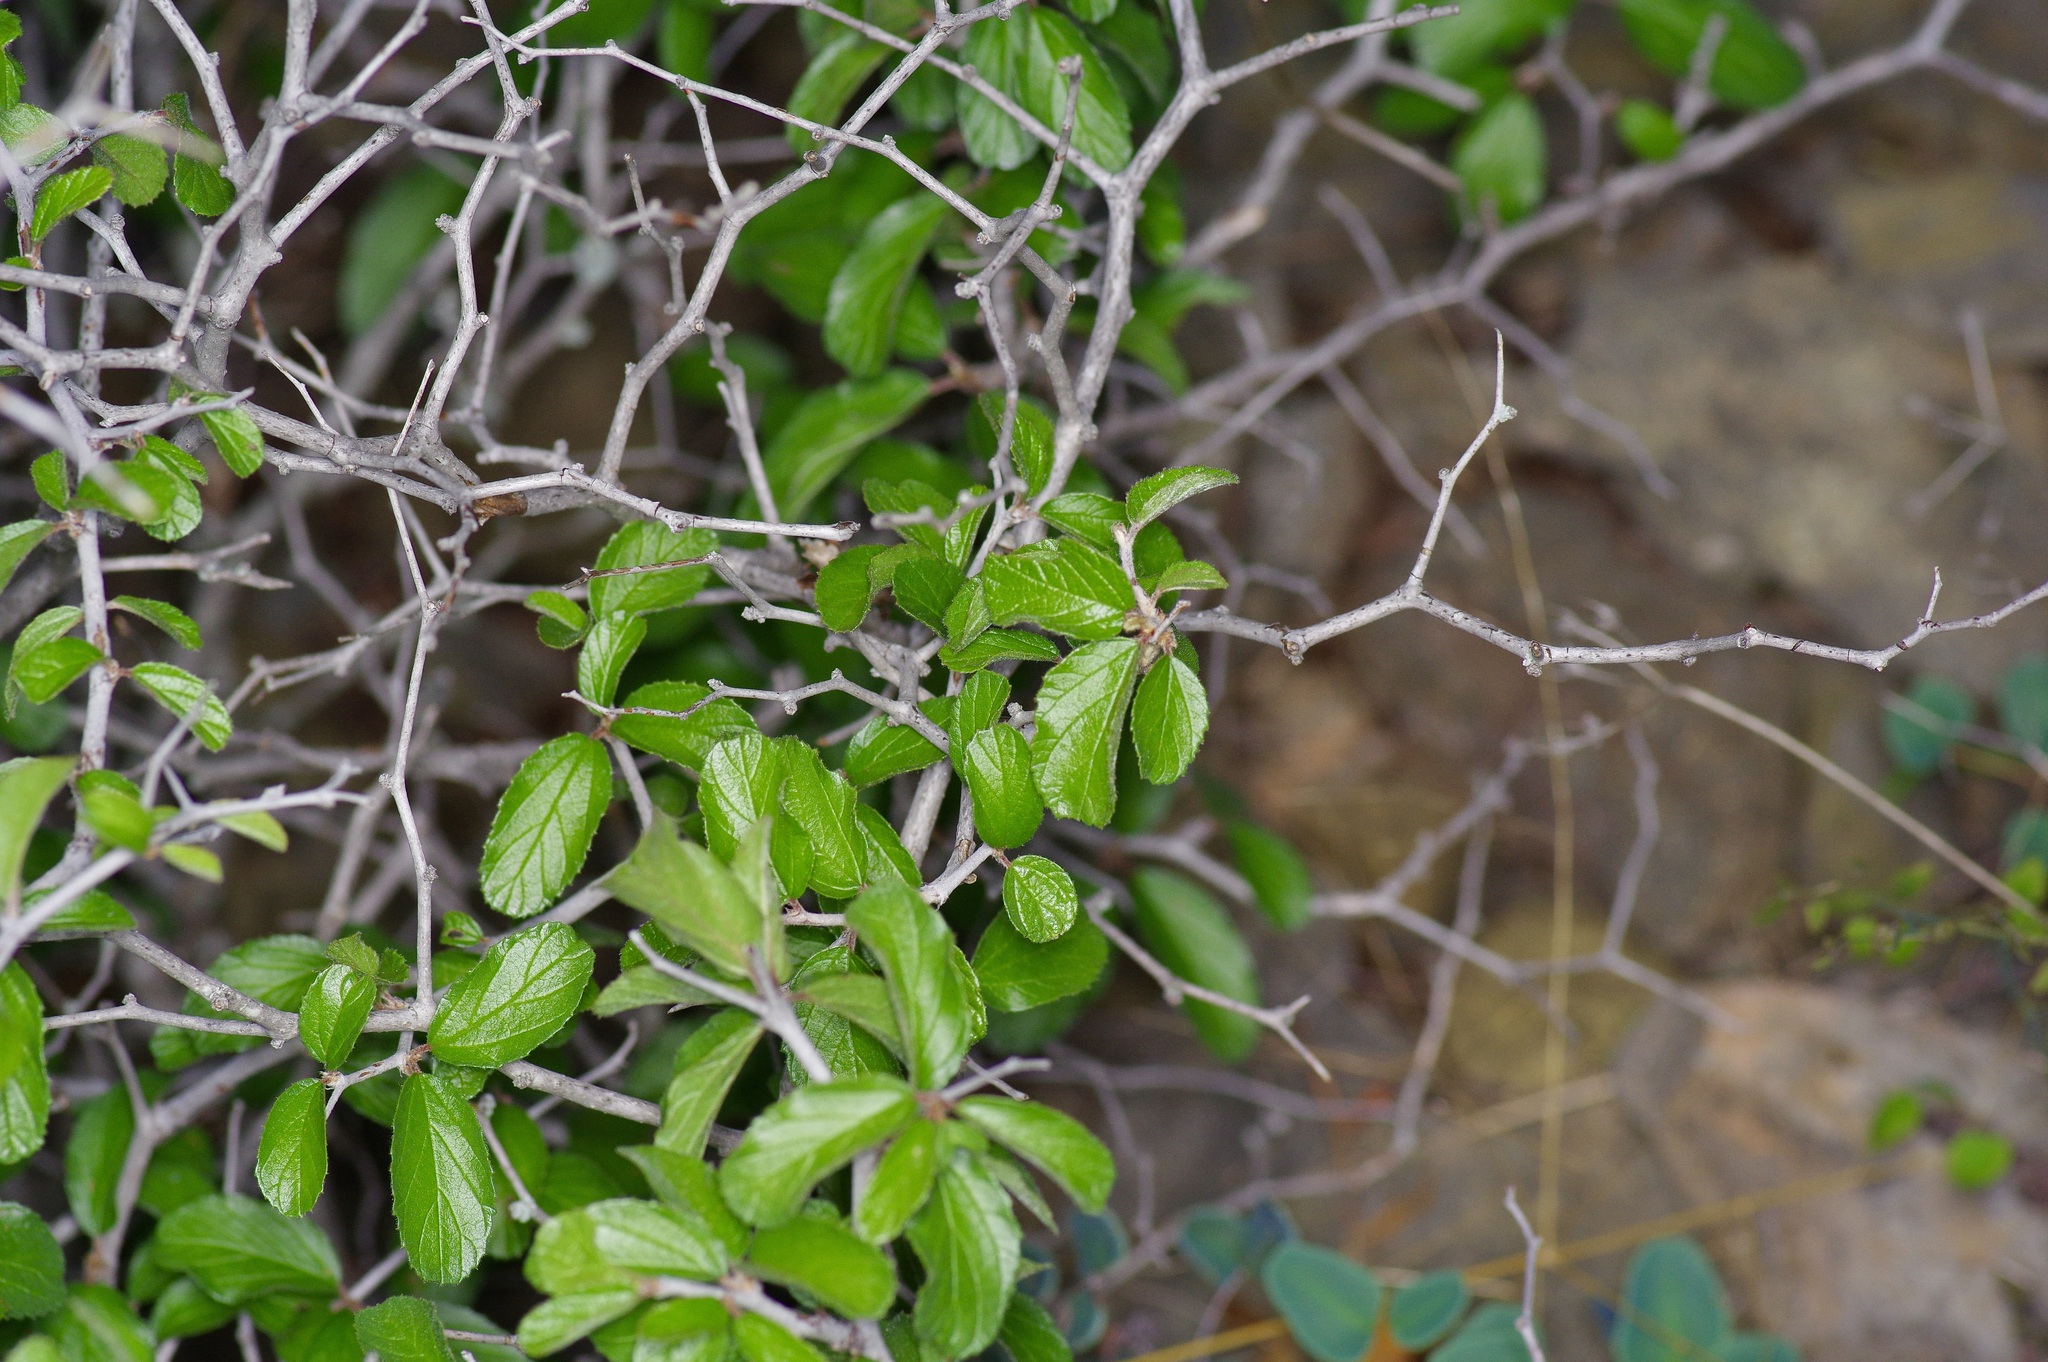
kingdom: Plantae
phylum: Tracheophyta
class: Magnoliopsida
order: Rosales
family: Rhamnaceae
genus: Colubrina
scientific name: Colubrina texensis
